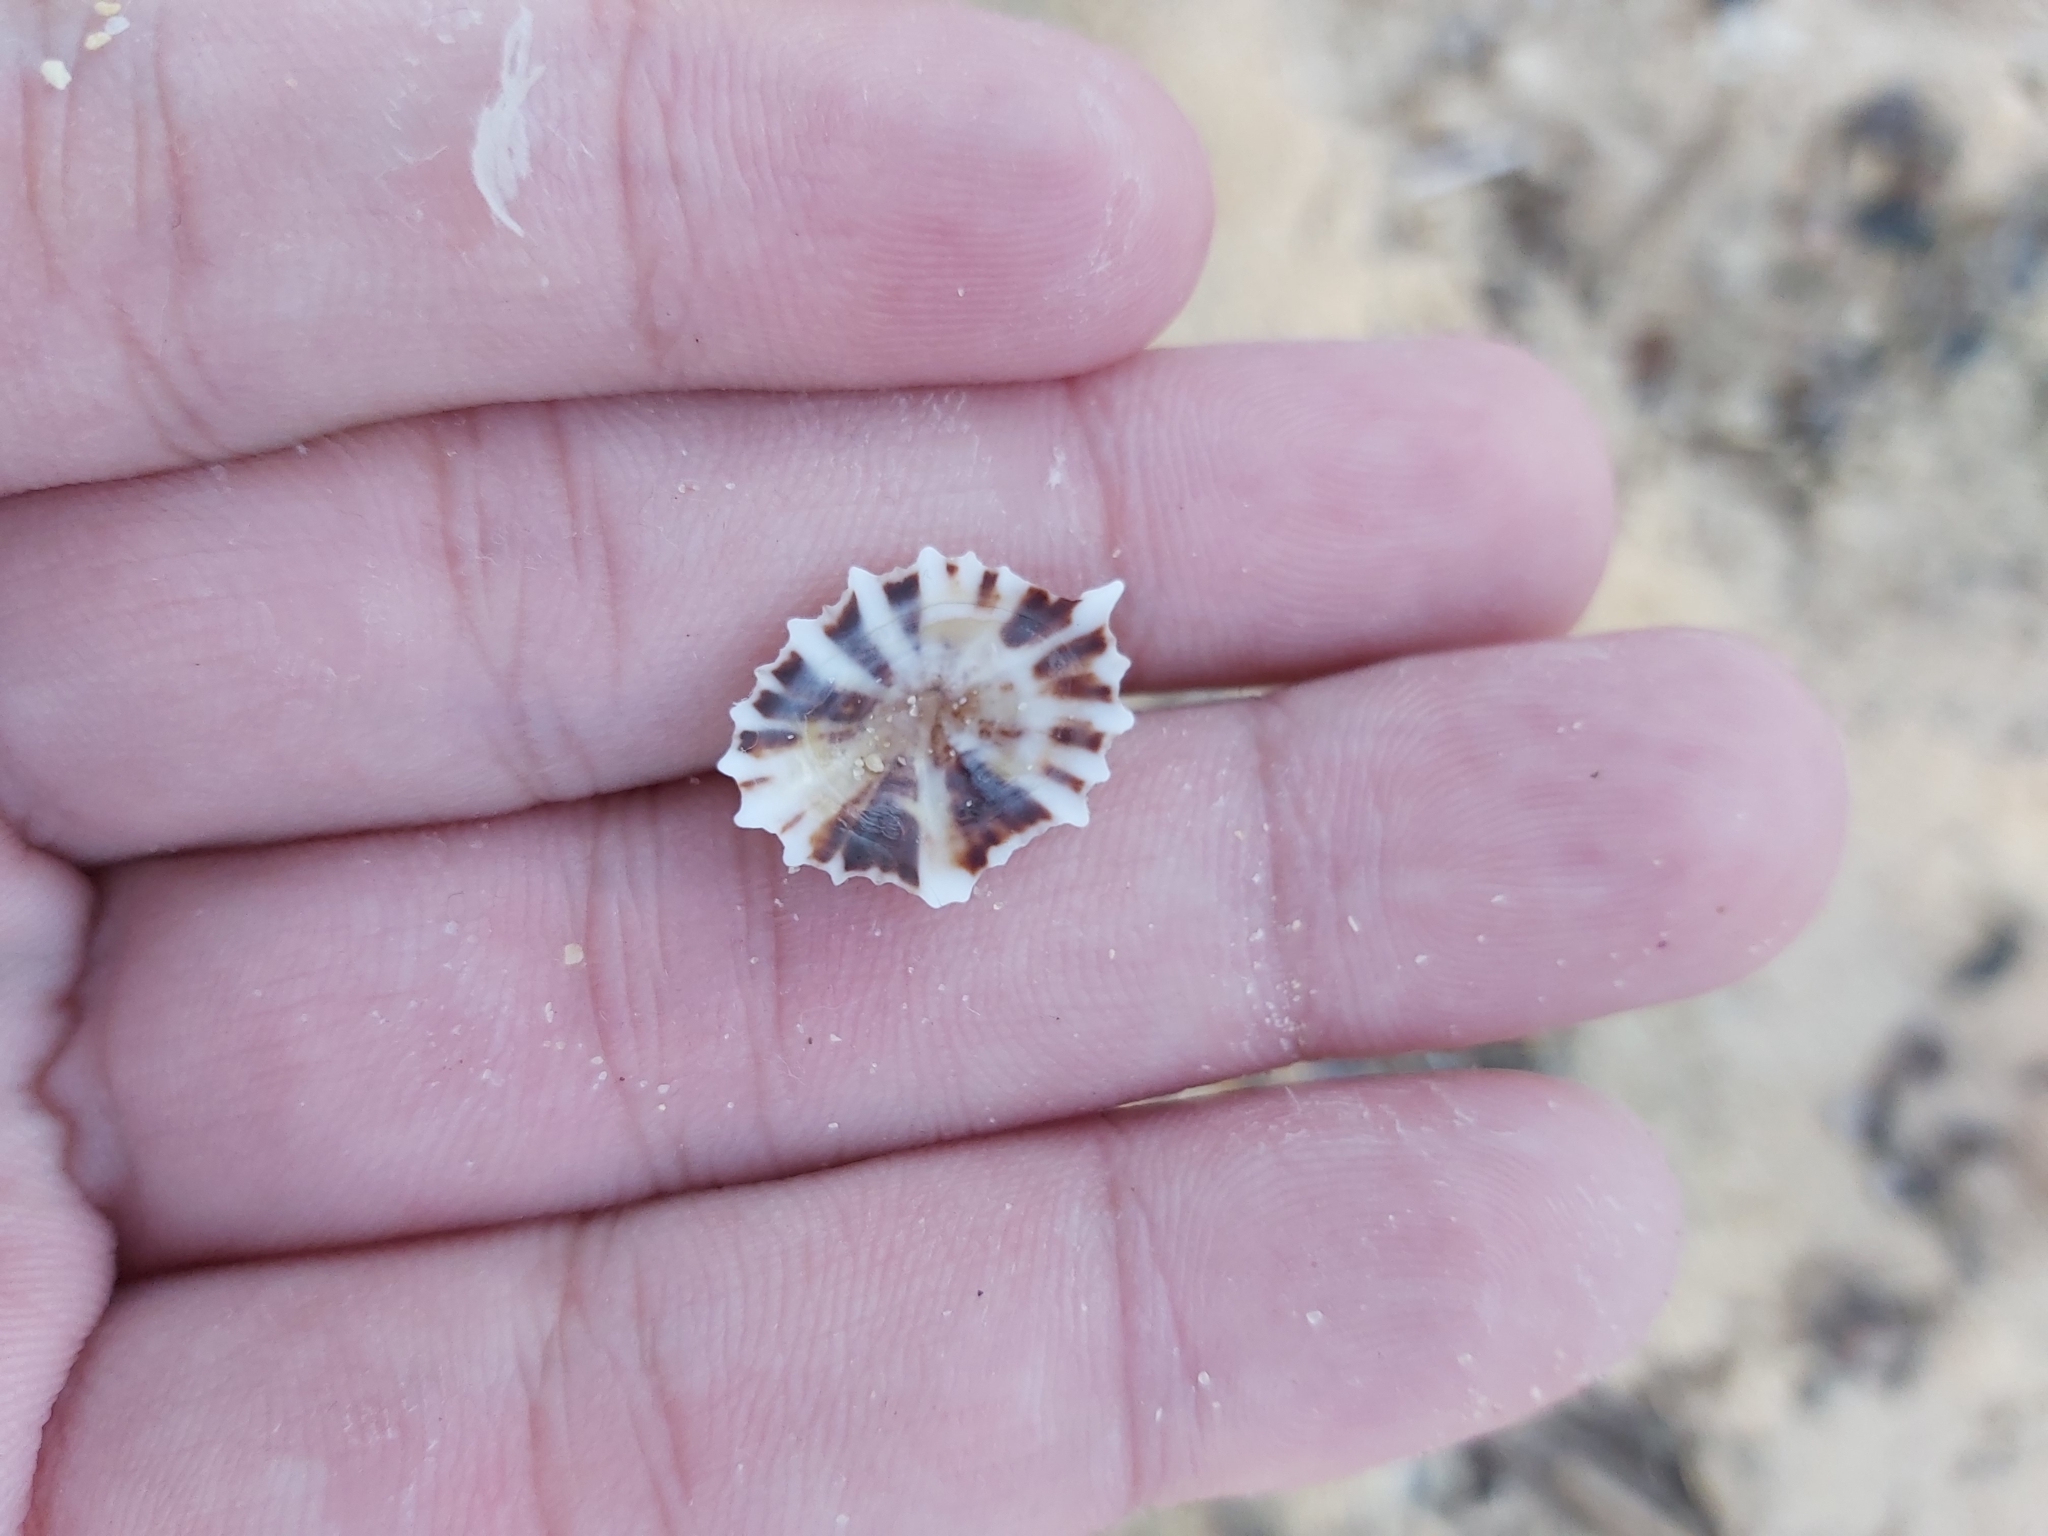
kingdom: Animalia
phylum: Mollusca
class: Gastropoda
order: Siphonariida
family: Siphonariidae
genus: Siphonaria
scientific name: Siphonaria denticulata
